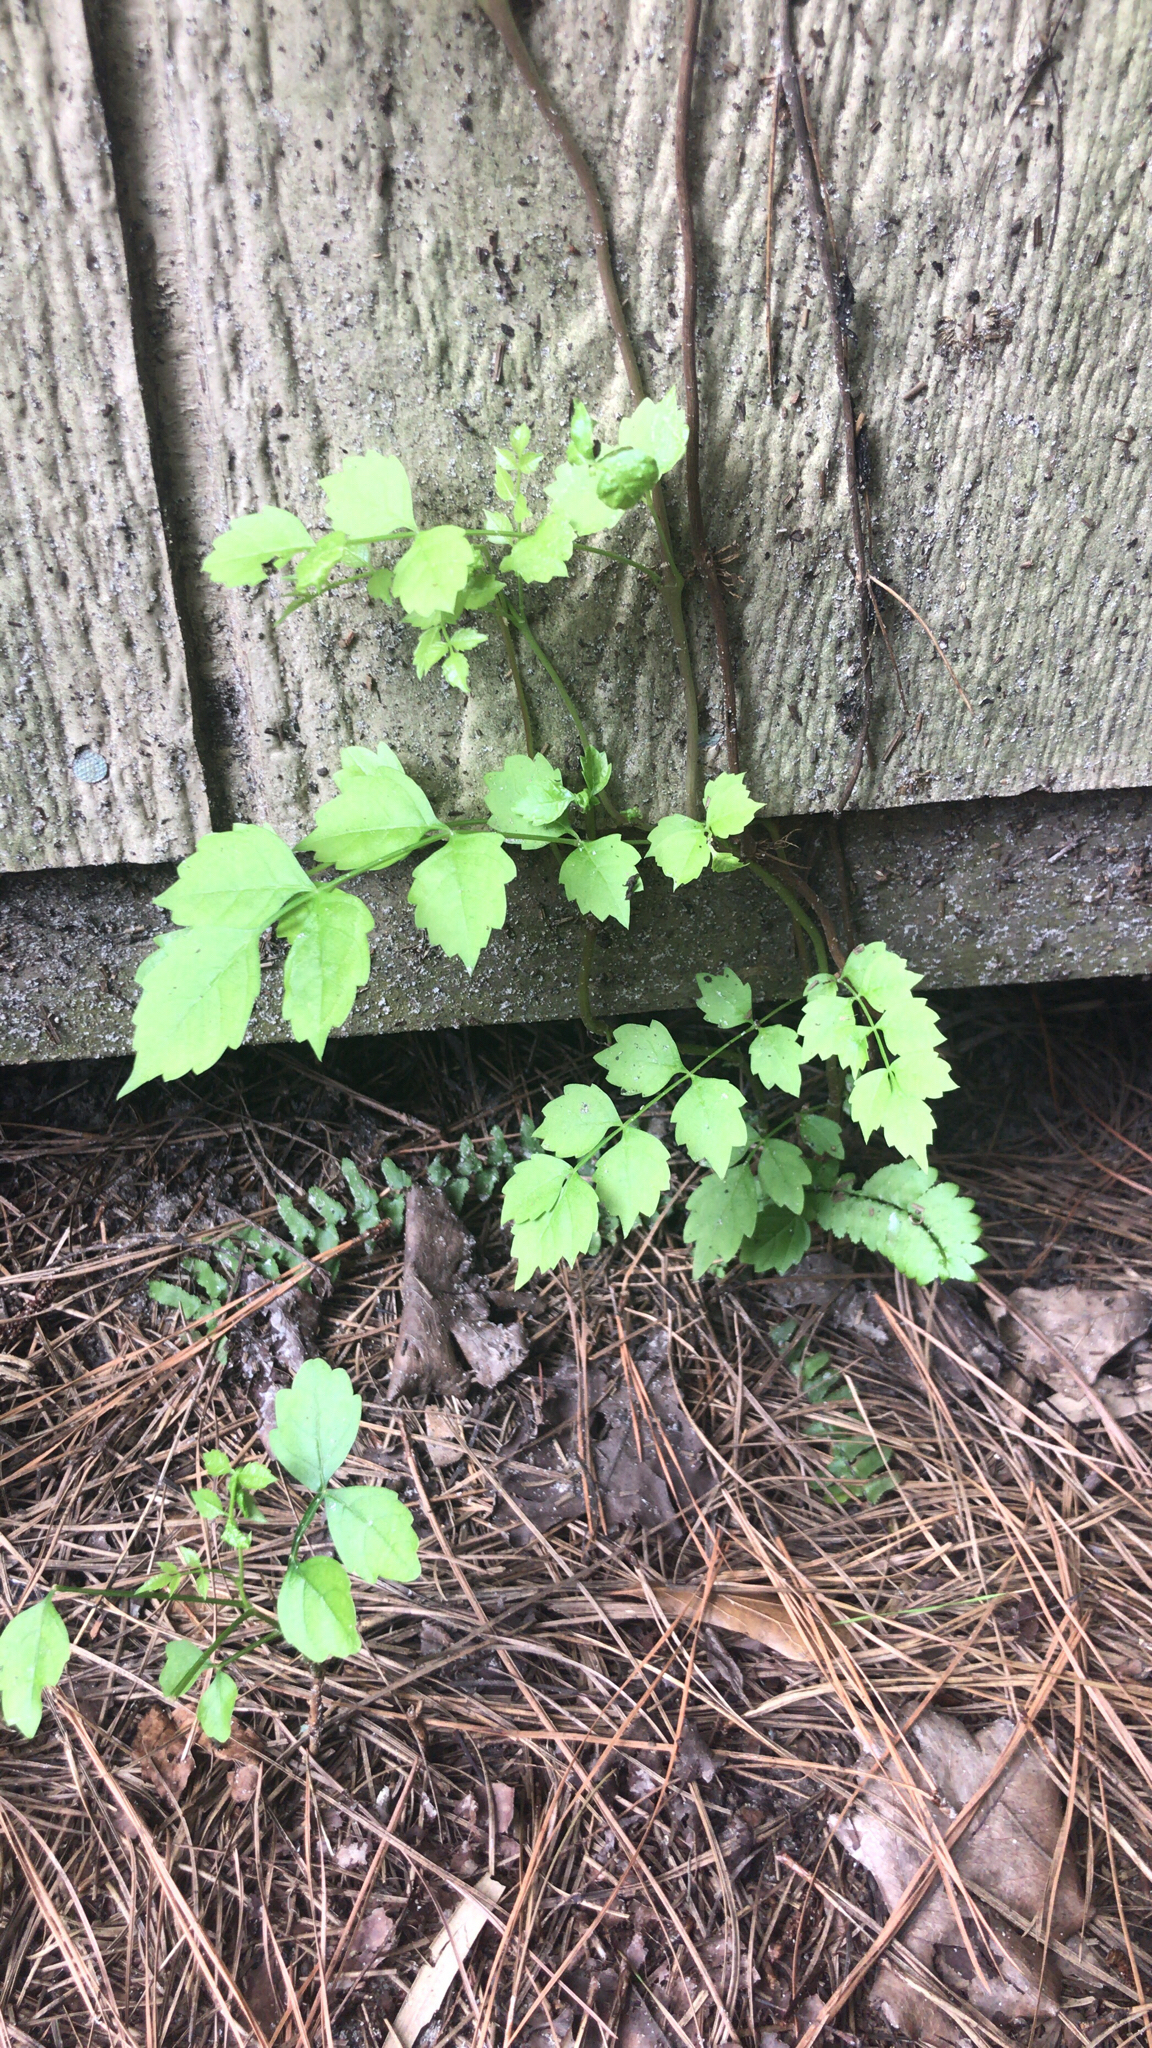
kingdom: Plantae
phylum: Tracheophyta
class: Magnoliopsida
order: Lamiales
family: Bignoniaceae
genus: Campsis
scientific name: Campsis radicans
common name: Trumpet-creeper
